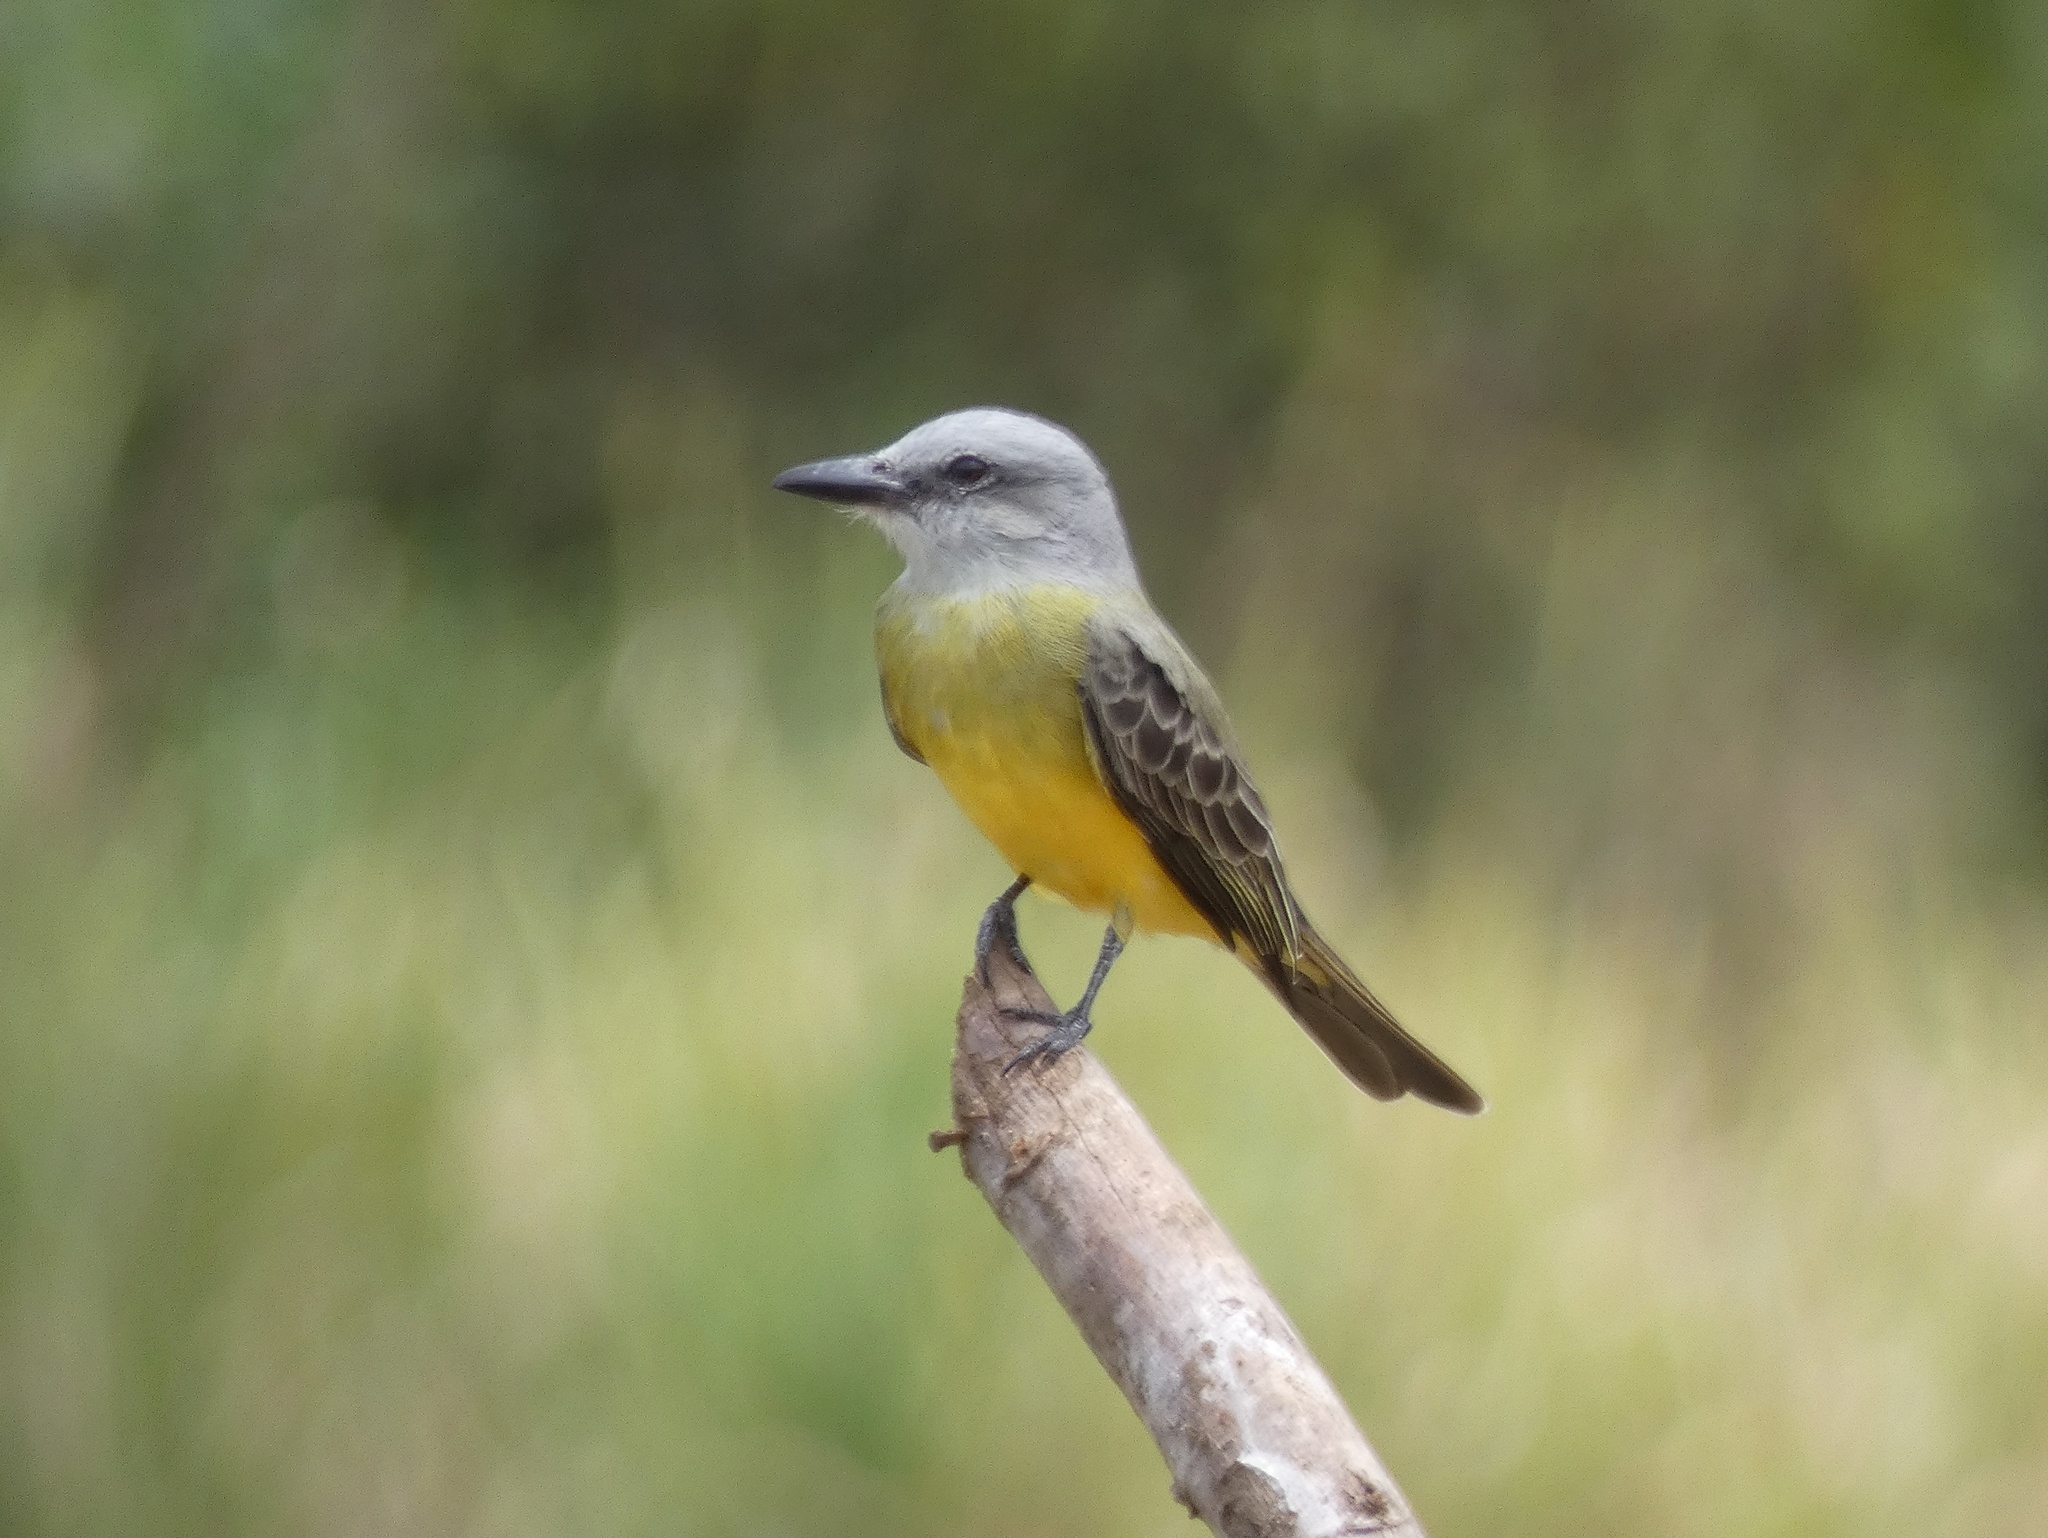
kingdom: Animalia
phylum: Chordata
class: Aves
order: Passeriformes
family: Tyrannidae
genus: Tyrannus
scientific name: Tyrannus melancholicus
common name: Tropical kingbird
